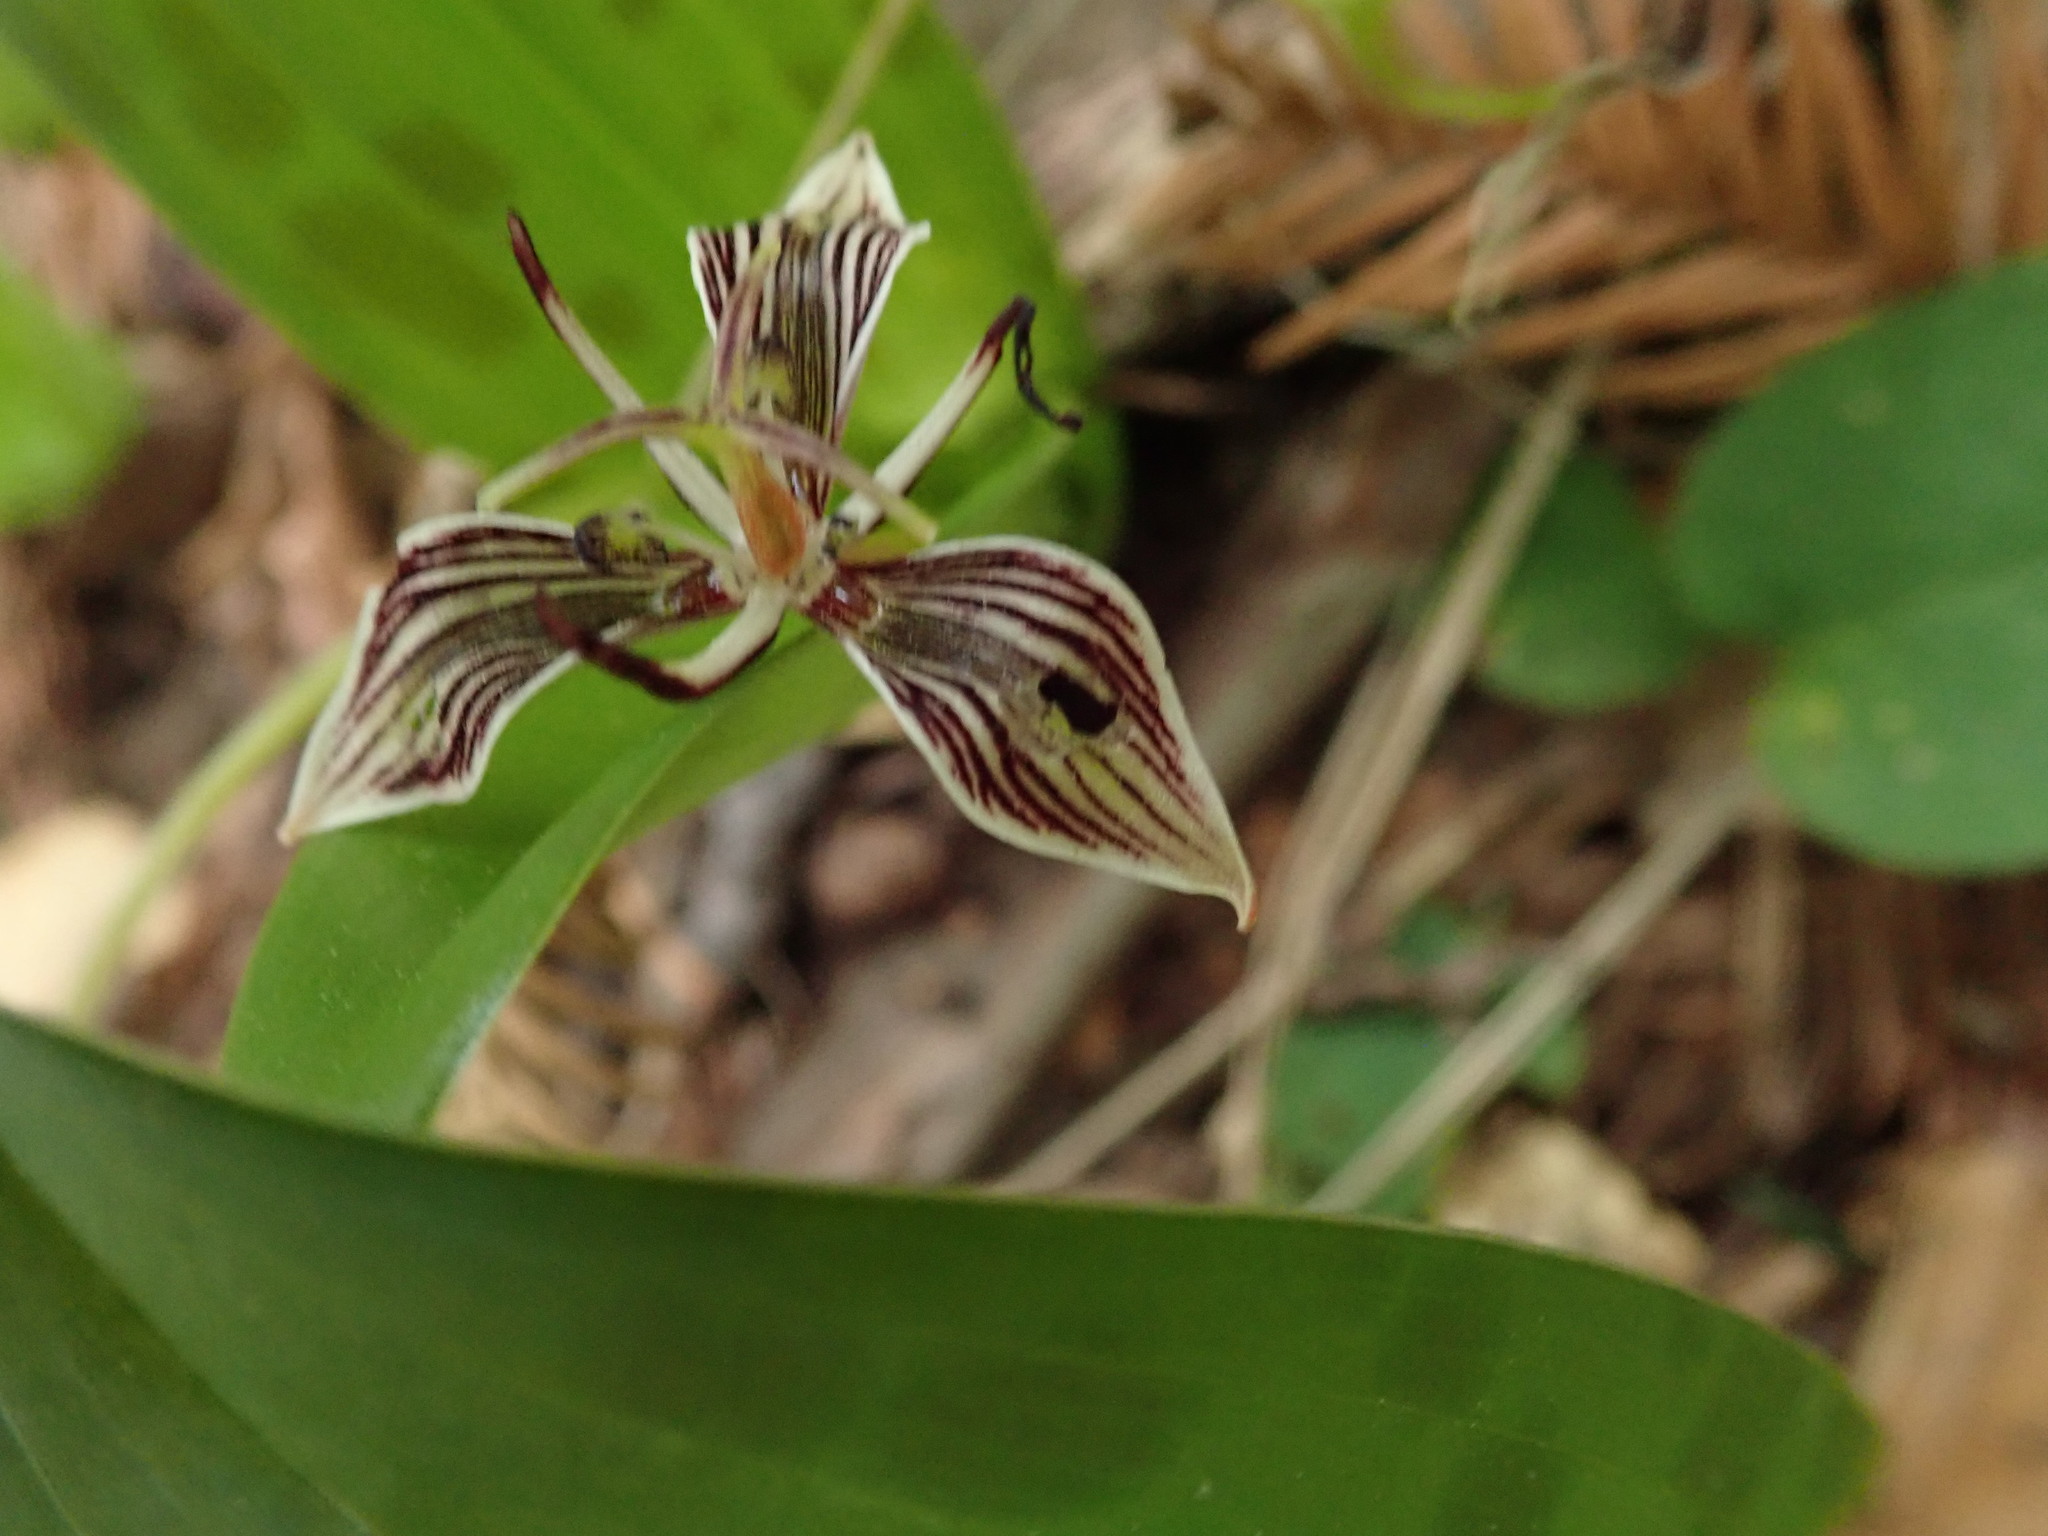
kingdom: Plantae
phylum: Tracheophyta
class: Liliopsida
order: Liliales
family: Liliaceae
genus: Scoliopus
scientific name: Scoliopus bigelovii
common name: Foetid adder's-tongue
